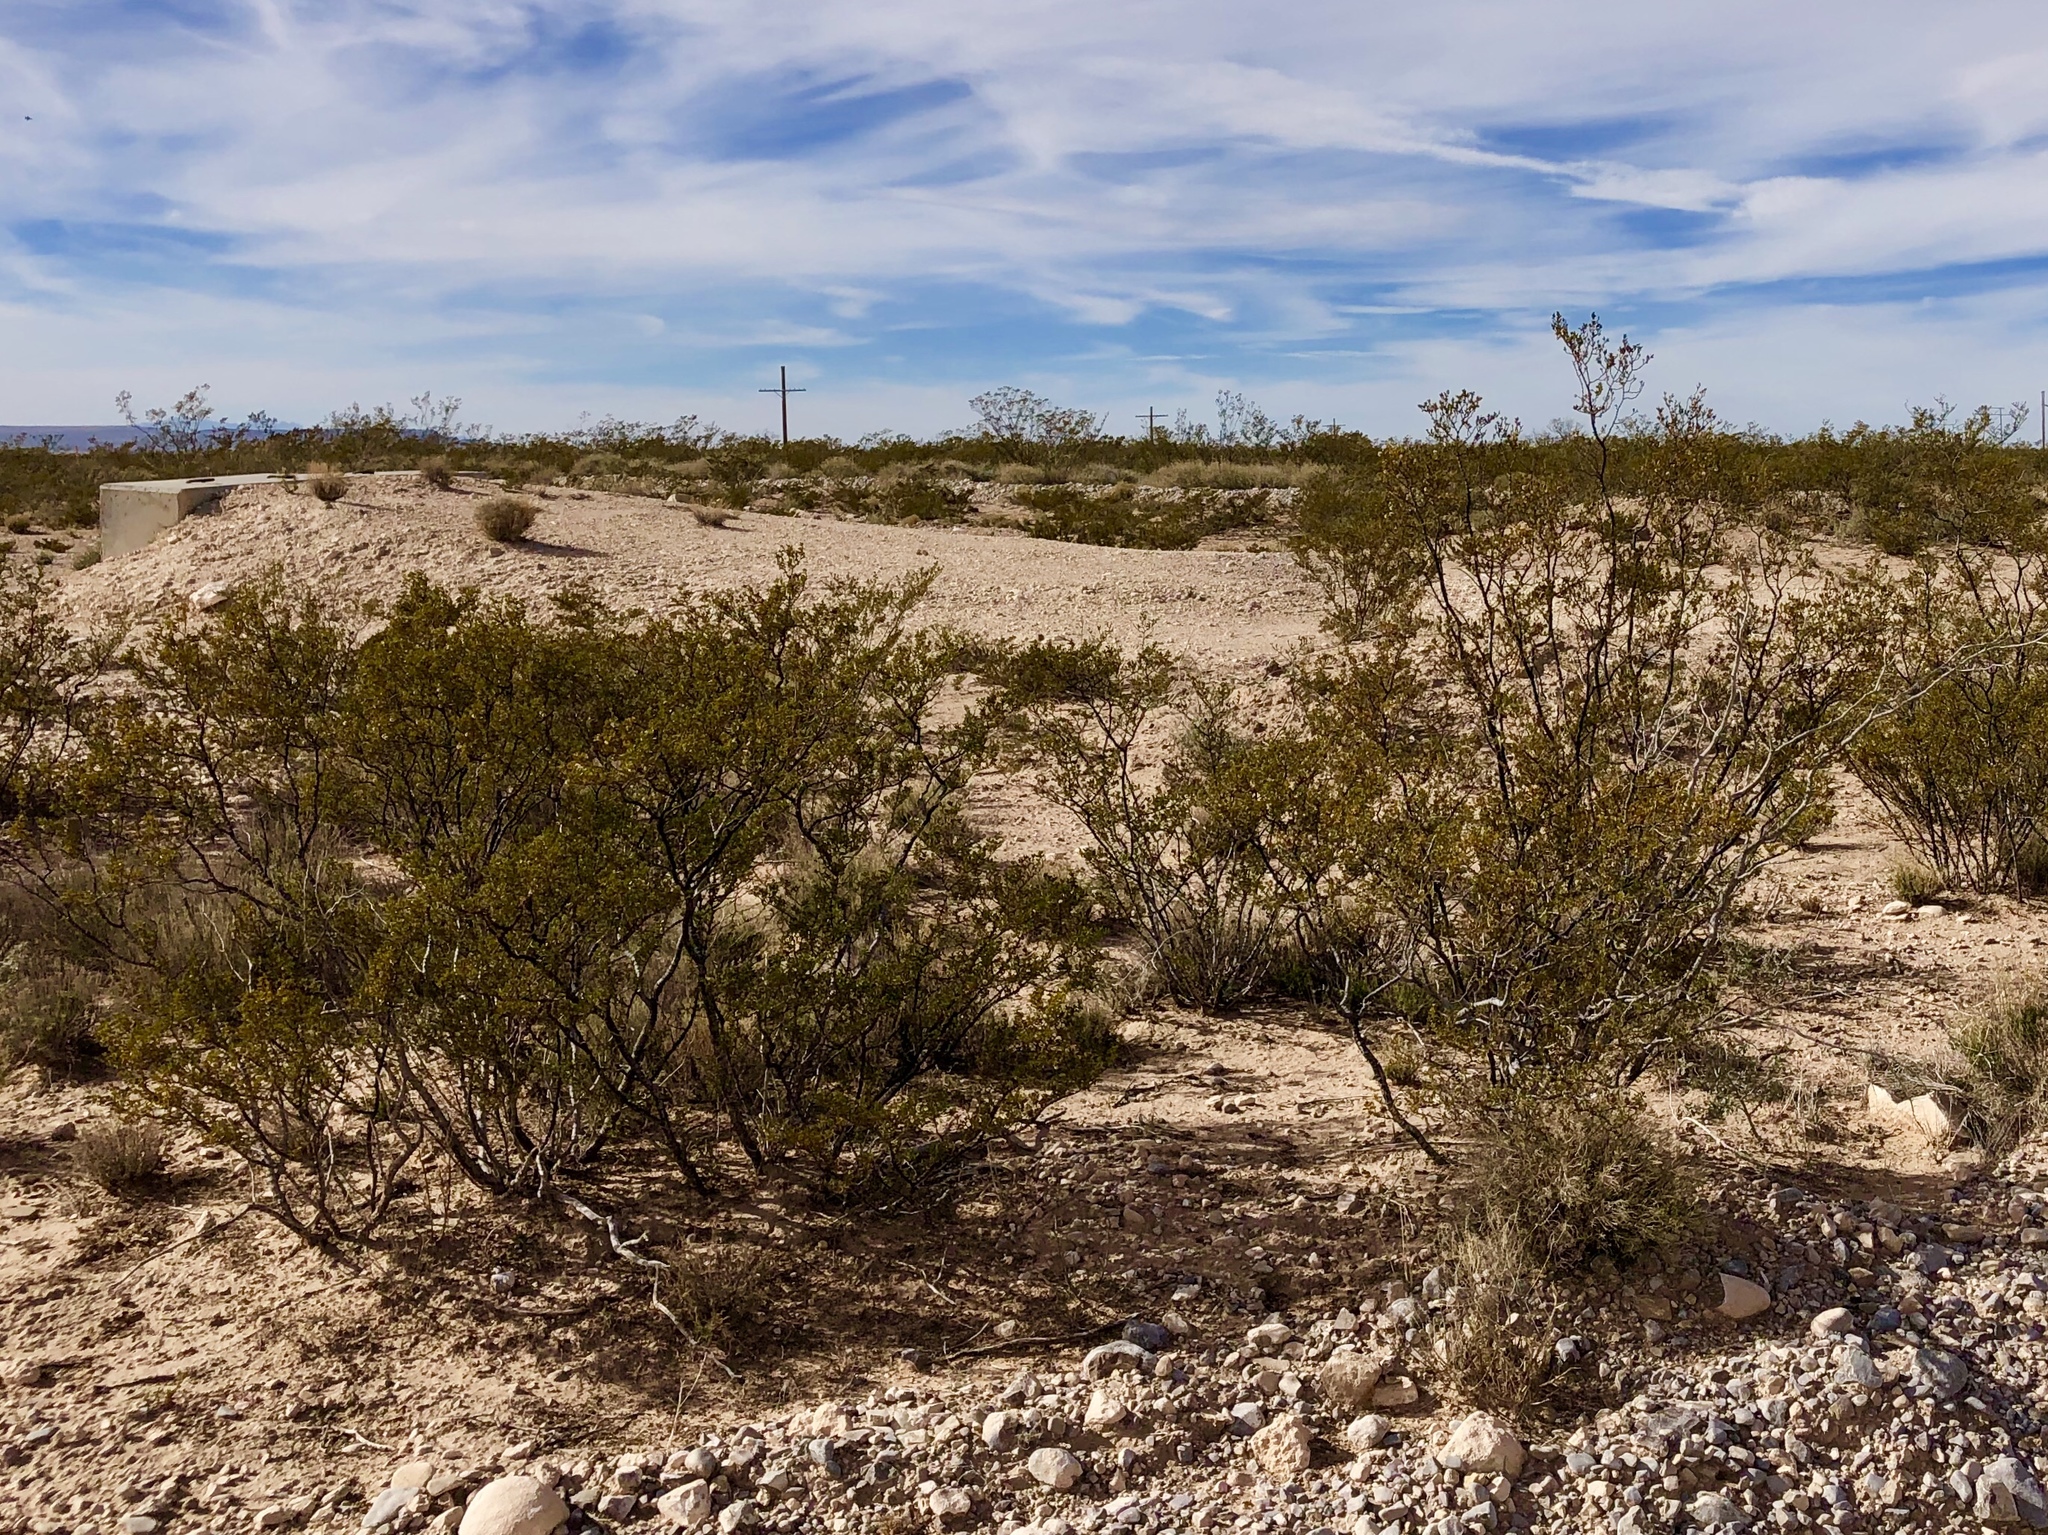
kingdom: Plantae
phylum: Tracheophyta
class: Magnoliopsida
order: Zygophyllales
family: Zygophyllaceae
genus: Larrea
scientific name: Larrea tridentata
